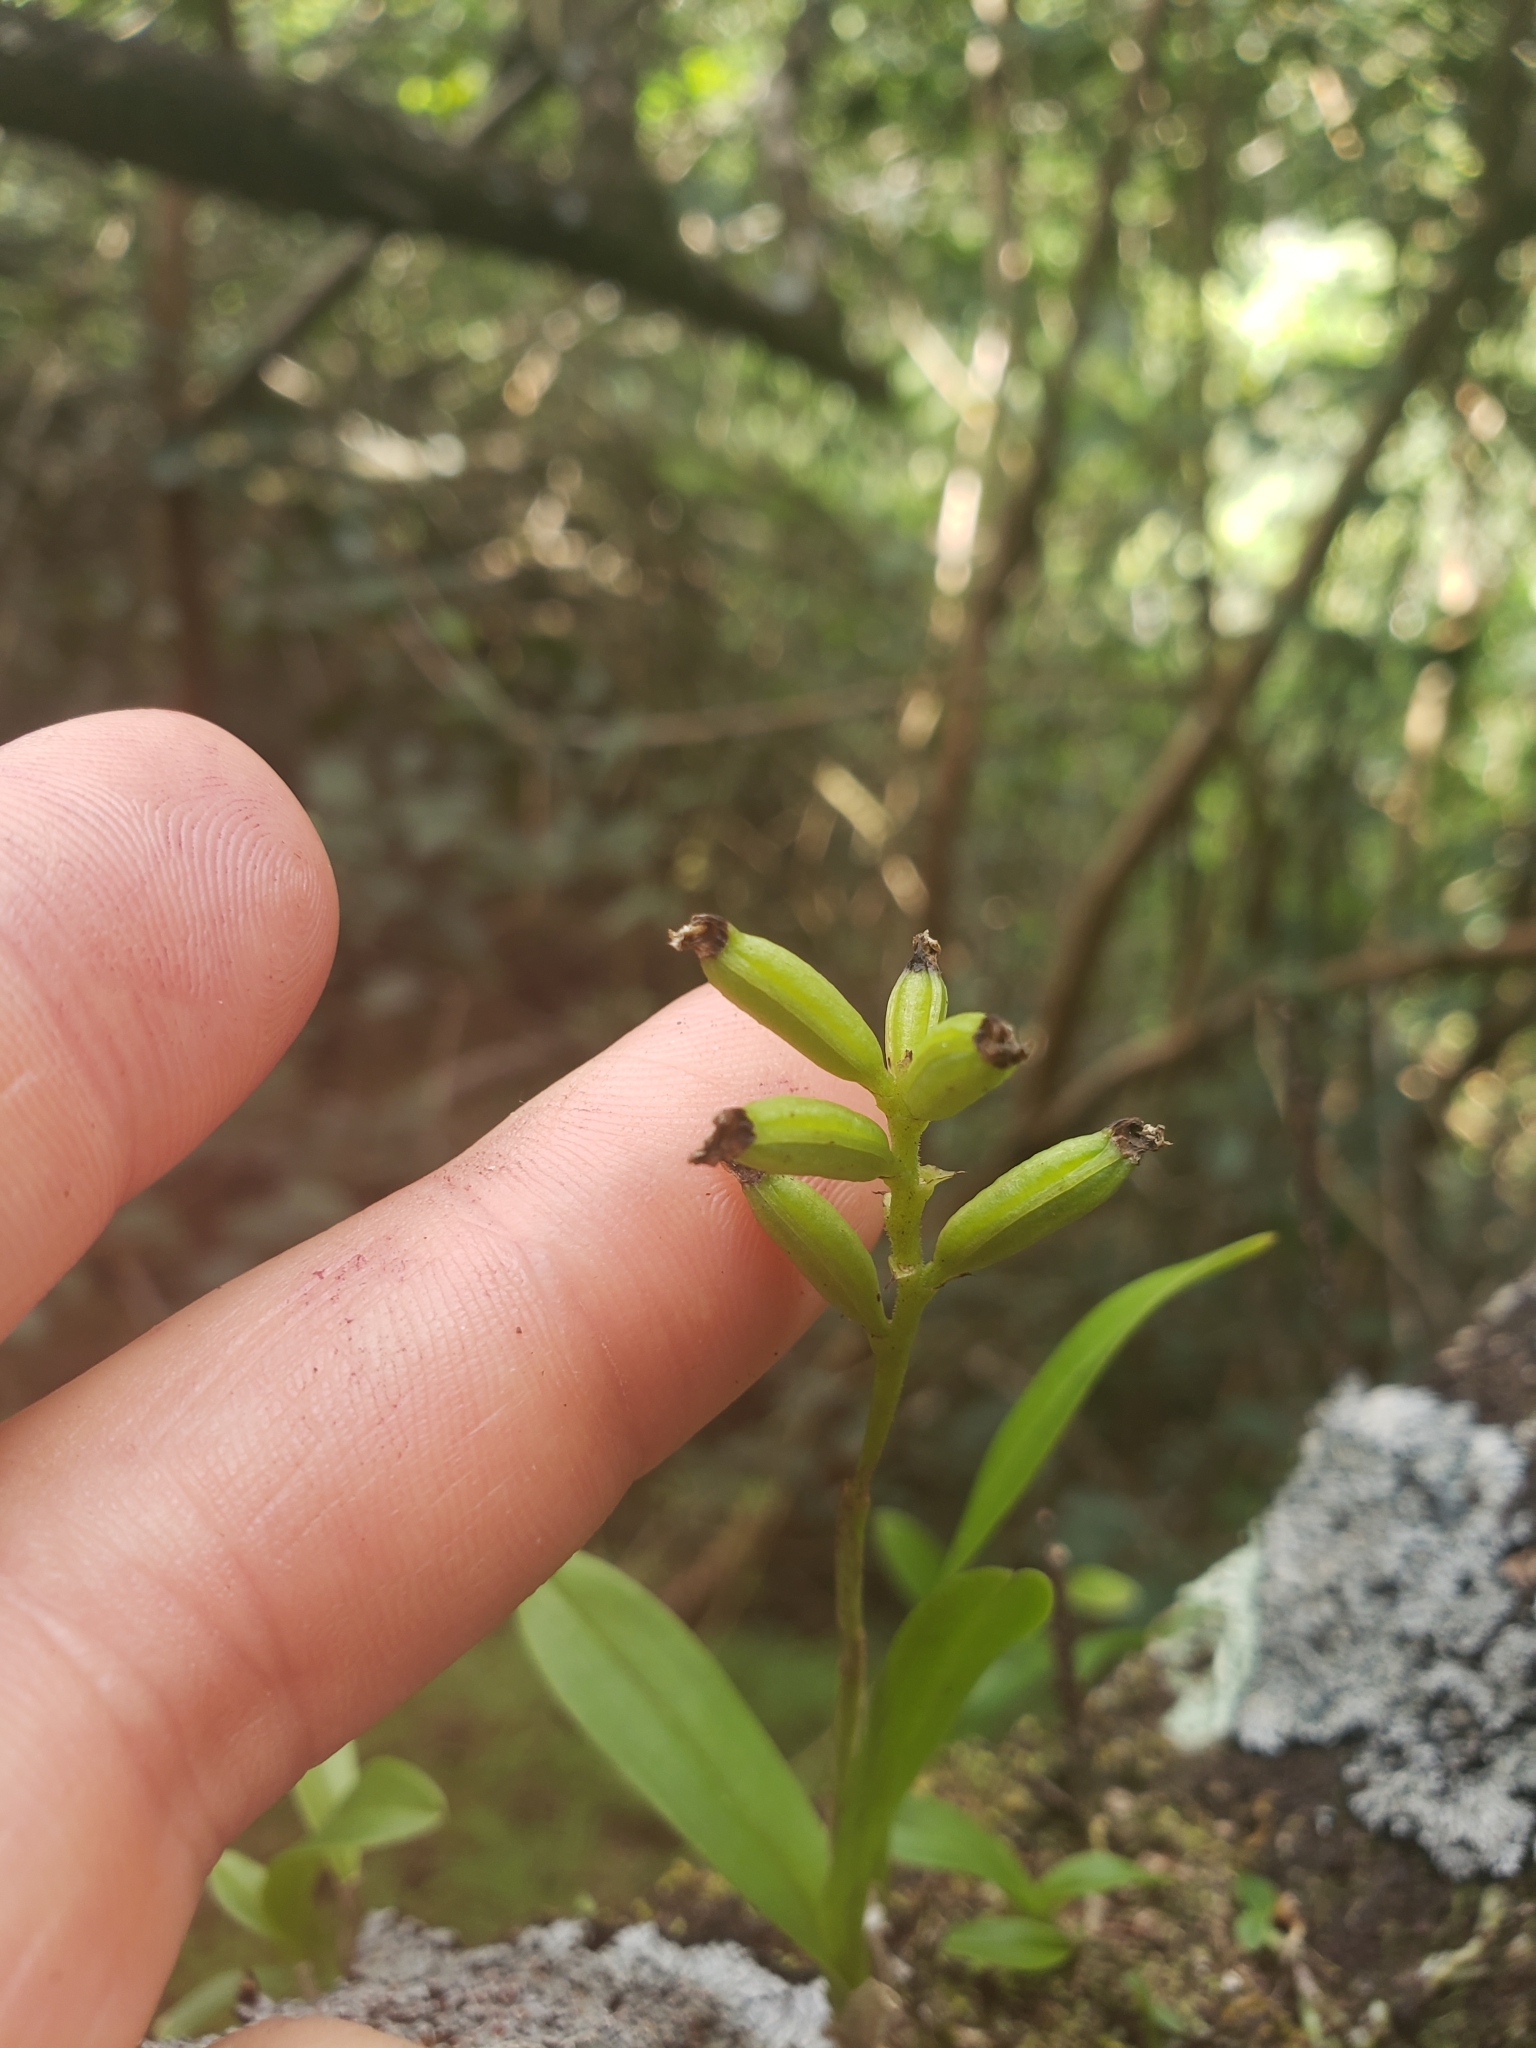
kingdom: Plantae
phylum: Tracheophyta
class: Liliopsida
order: Asparagales
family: Orchidaceae
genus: Polystachya
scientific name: Polystachya concreta
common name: Greater yellowspike orchid
